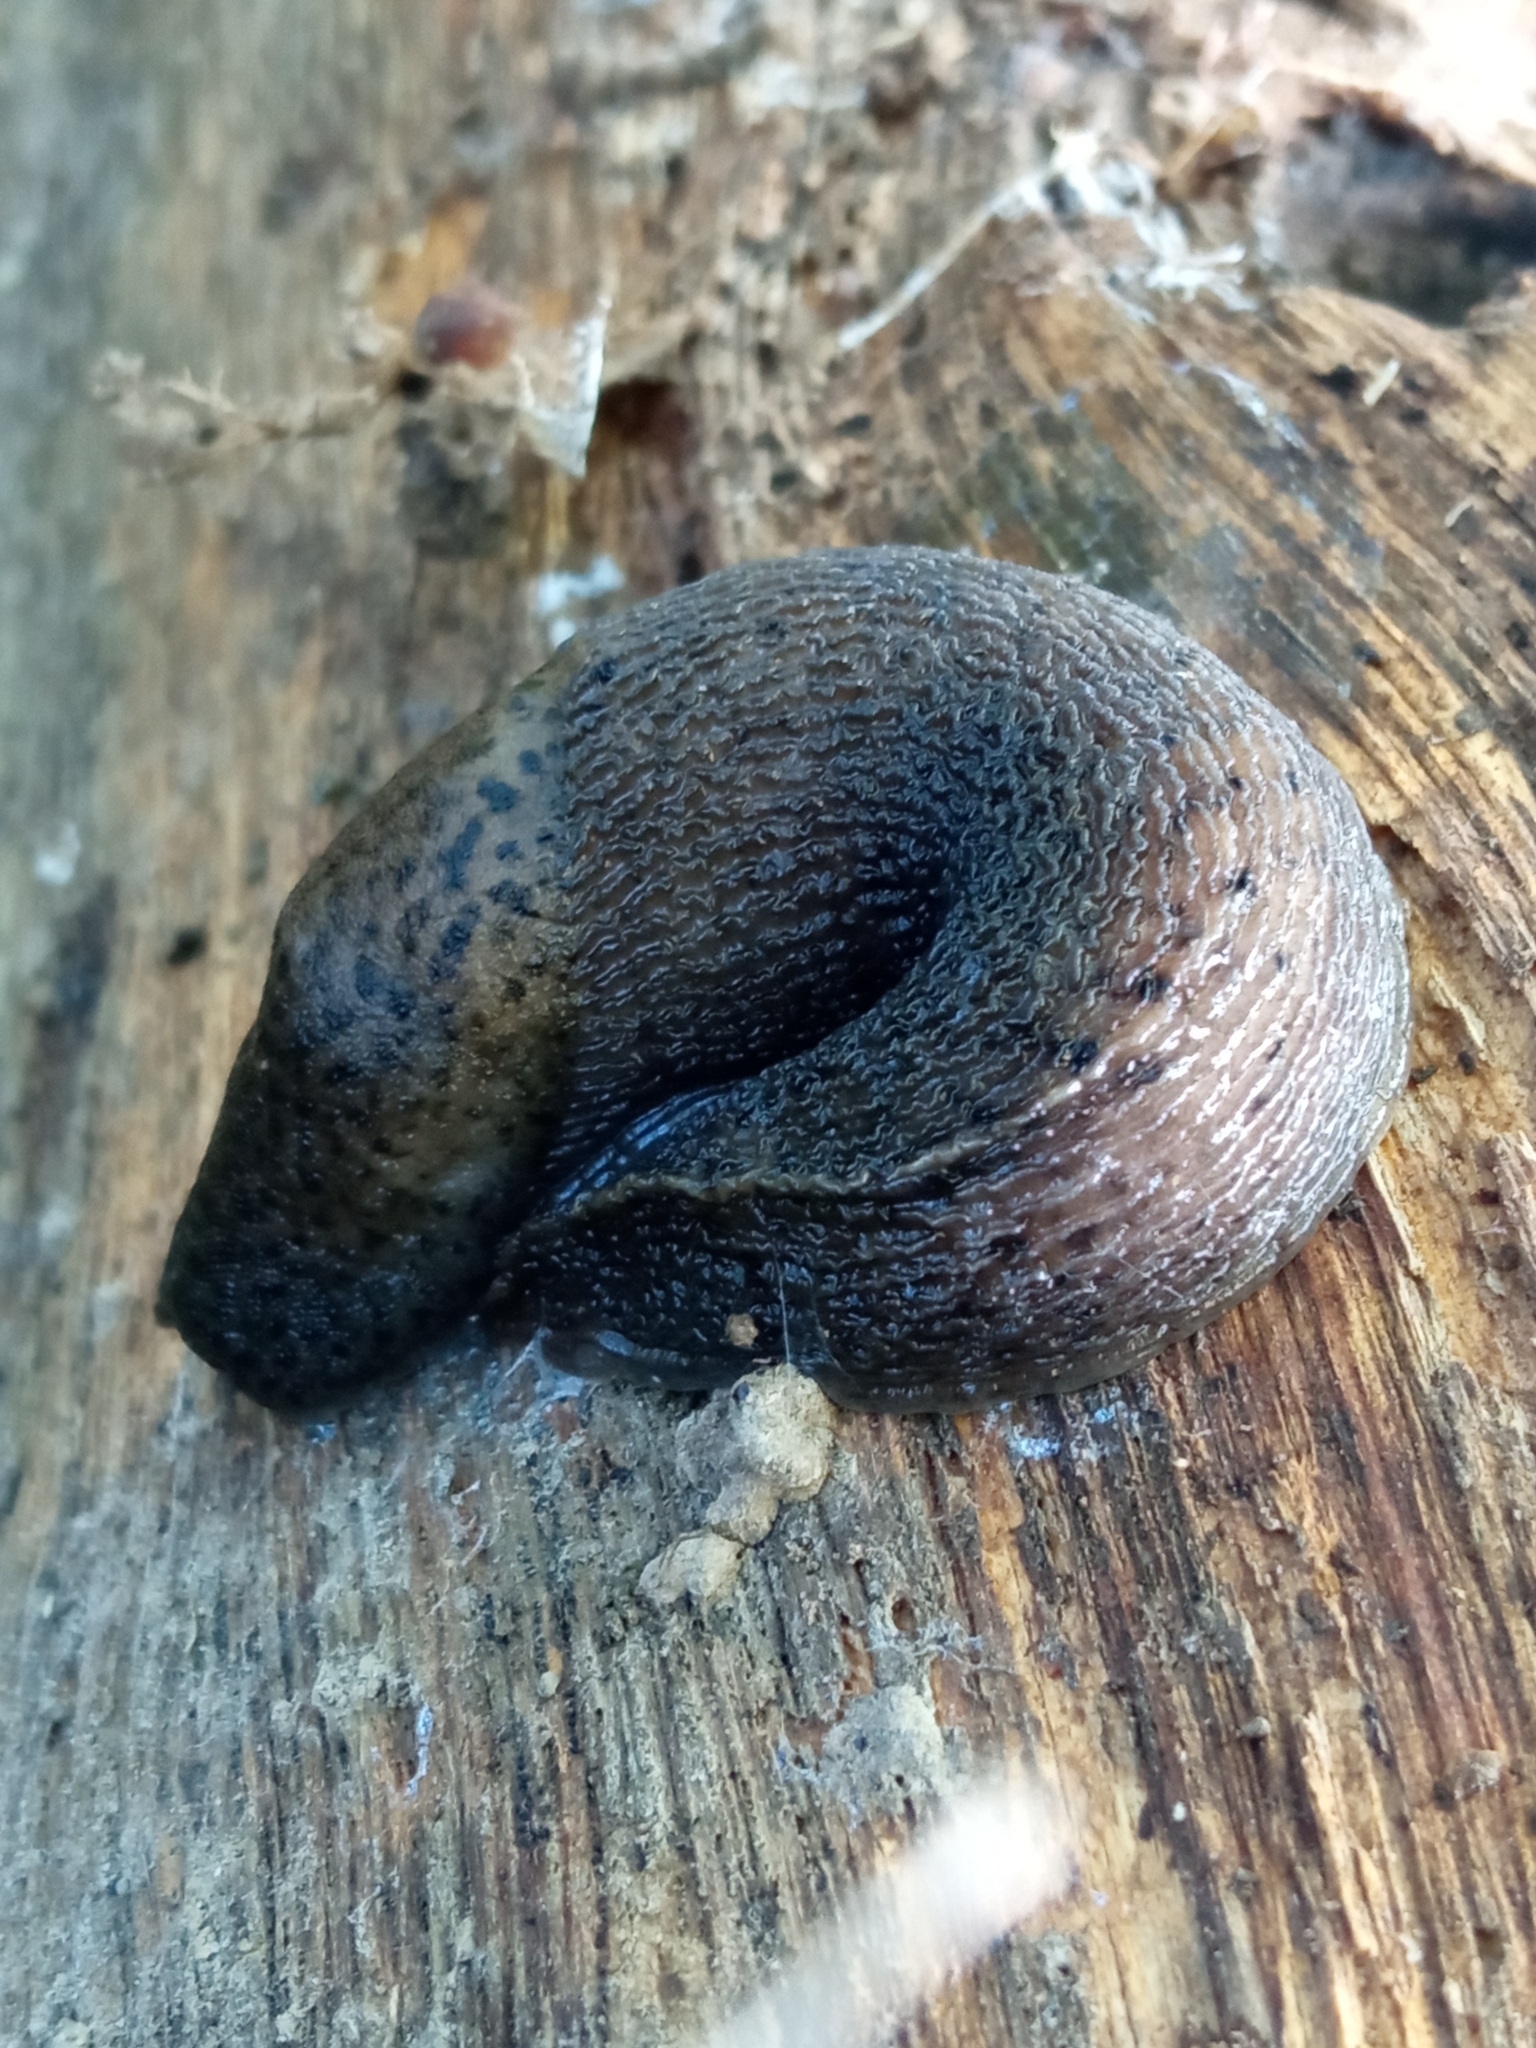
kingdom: Animalia
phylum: Mollusca
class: Gastropoda
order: Stylommatophora
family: Limacidae
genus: Limax
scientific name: Limax maximus
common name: Great grey slug
